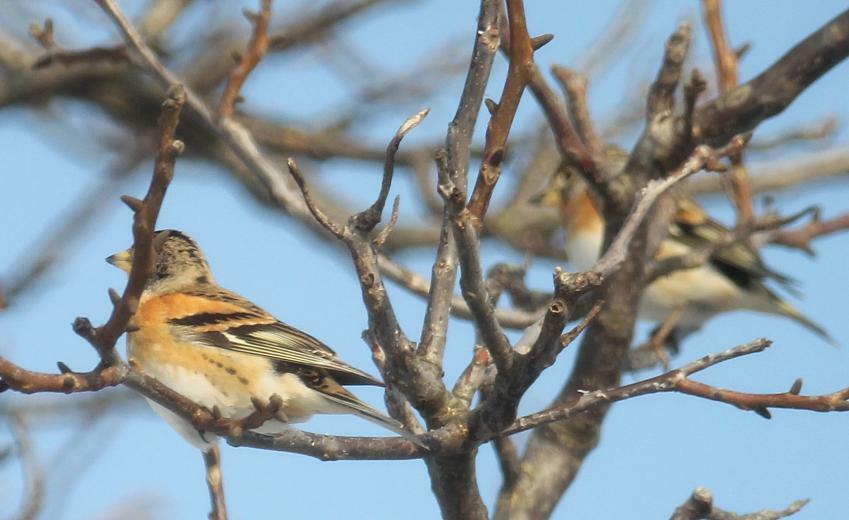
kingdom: Animalia
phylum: Chordata
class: Aves
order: Passeriformes
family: Fringillidae
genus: Fringilla
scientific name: Fringilla montifringilla
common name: Brambling
